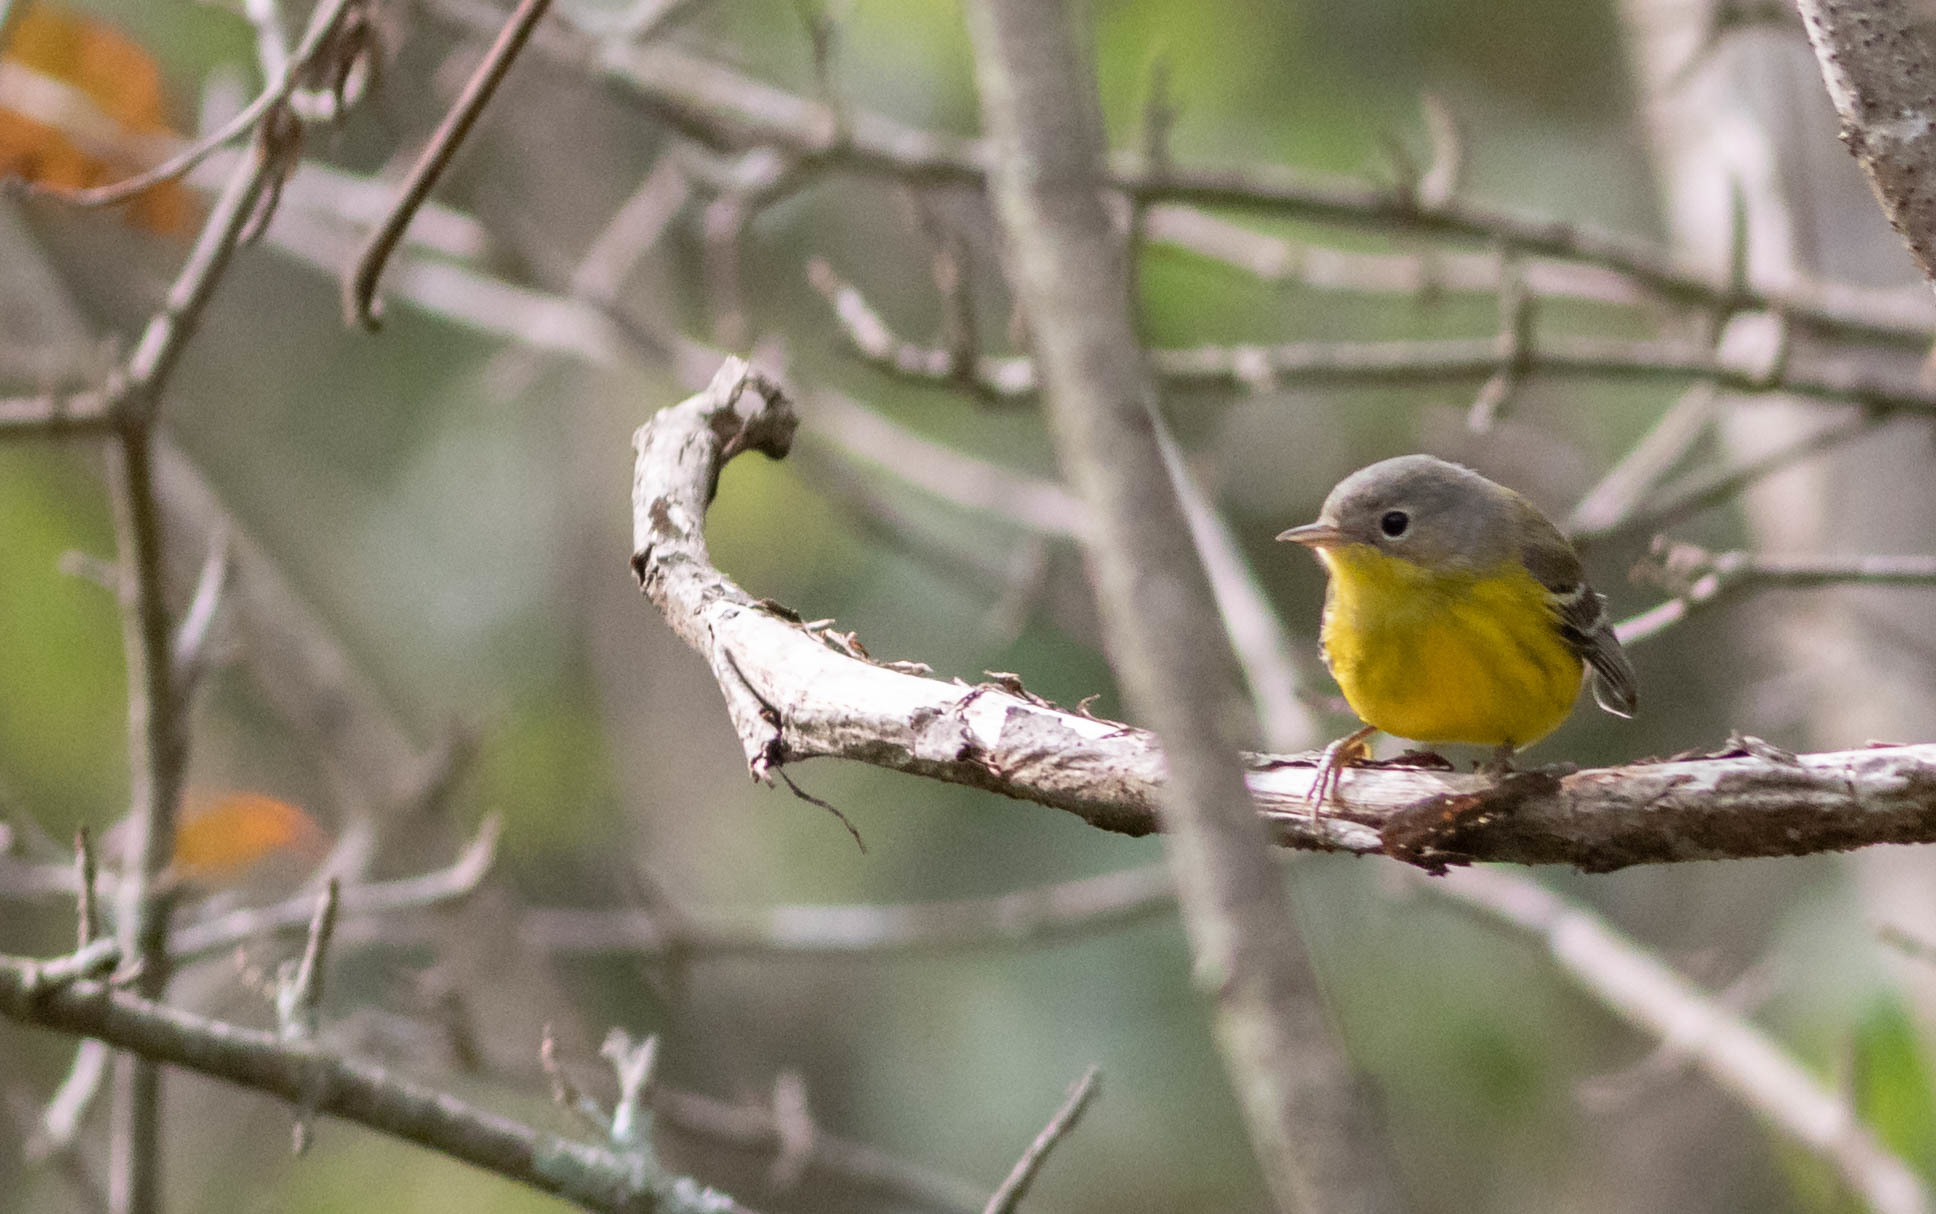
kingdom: Animalia
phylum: Chordata
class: Aves
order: Passeriformes
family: Parulidae
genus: Setophaga
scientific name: Setophaga magnolia
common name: Magnolia warbler
